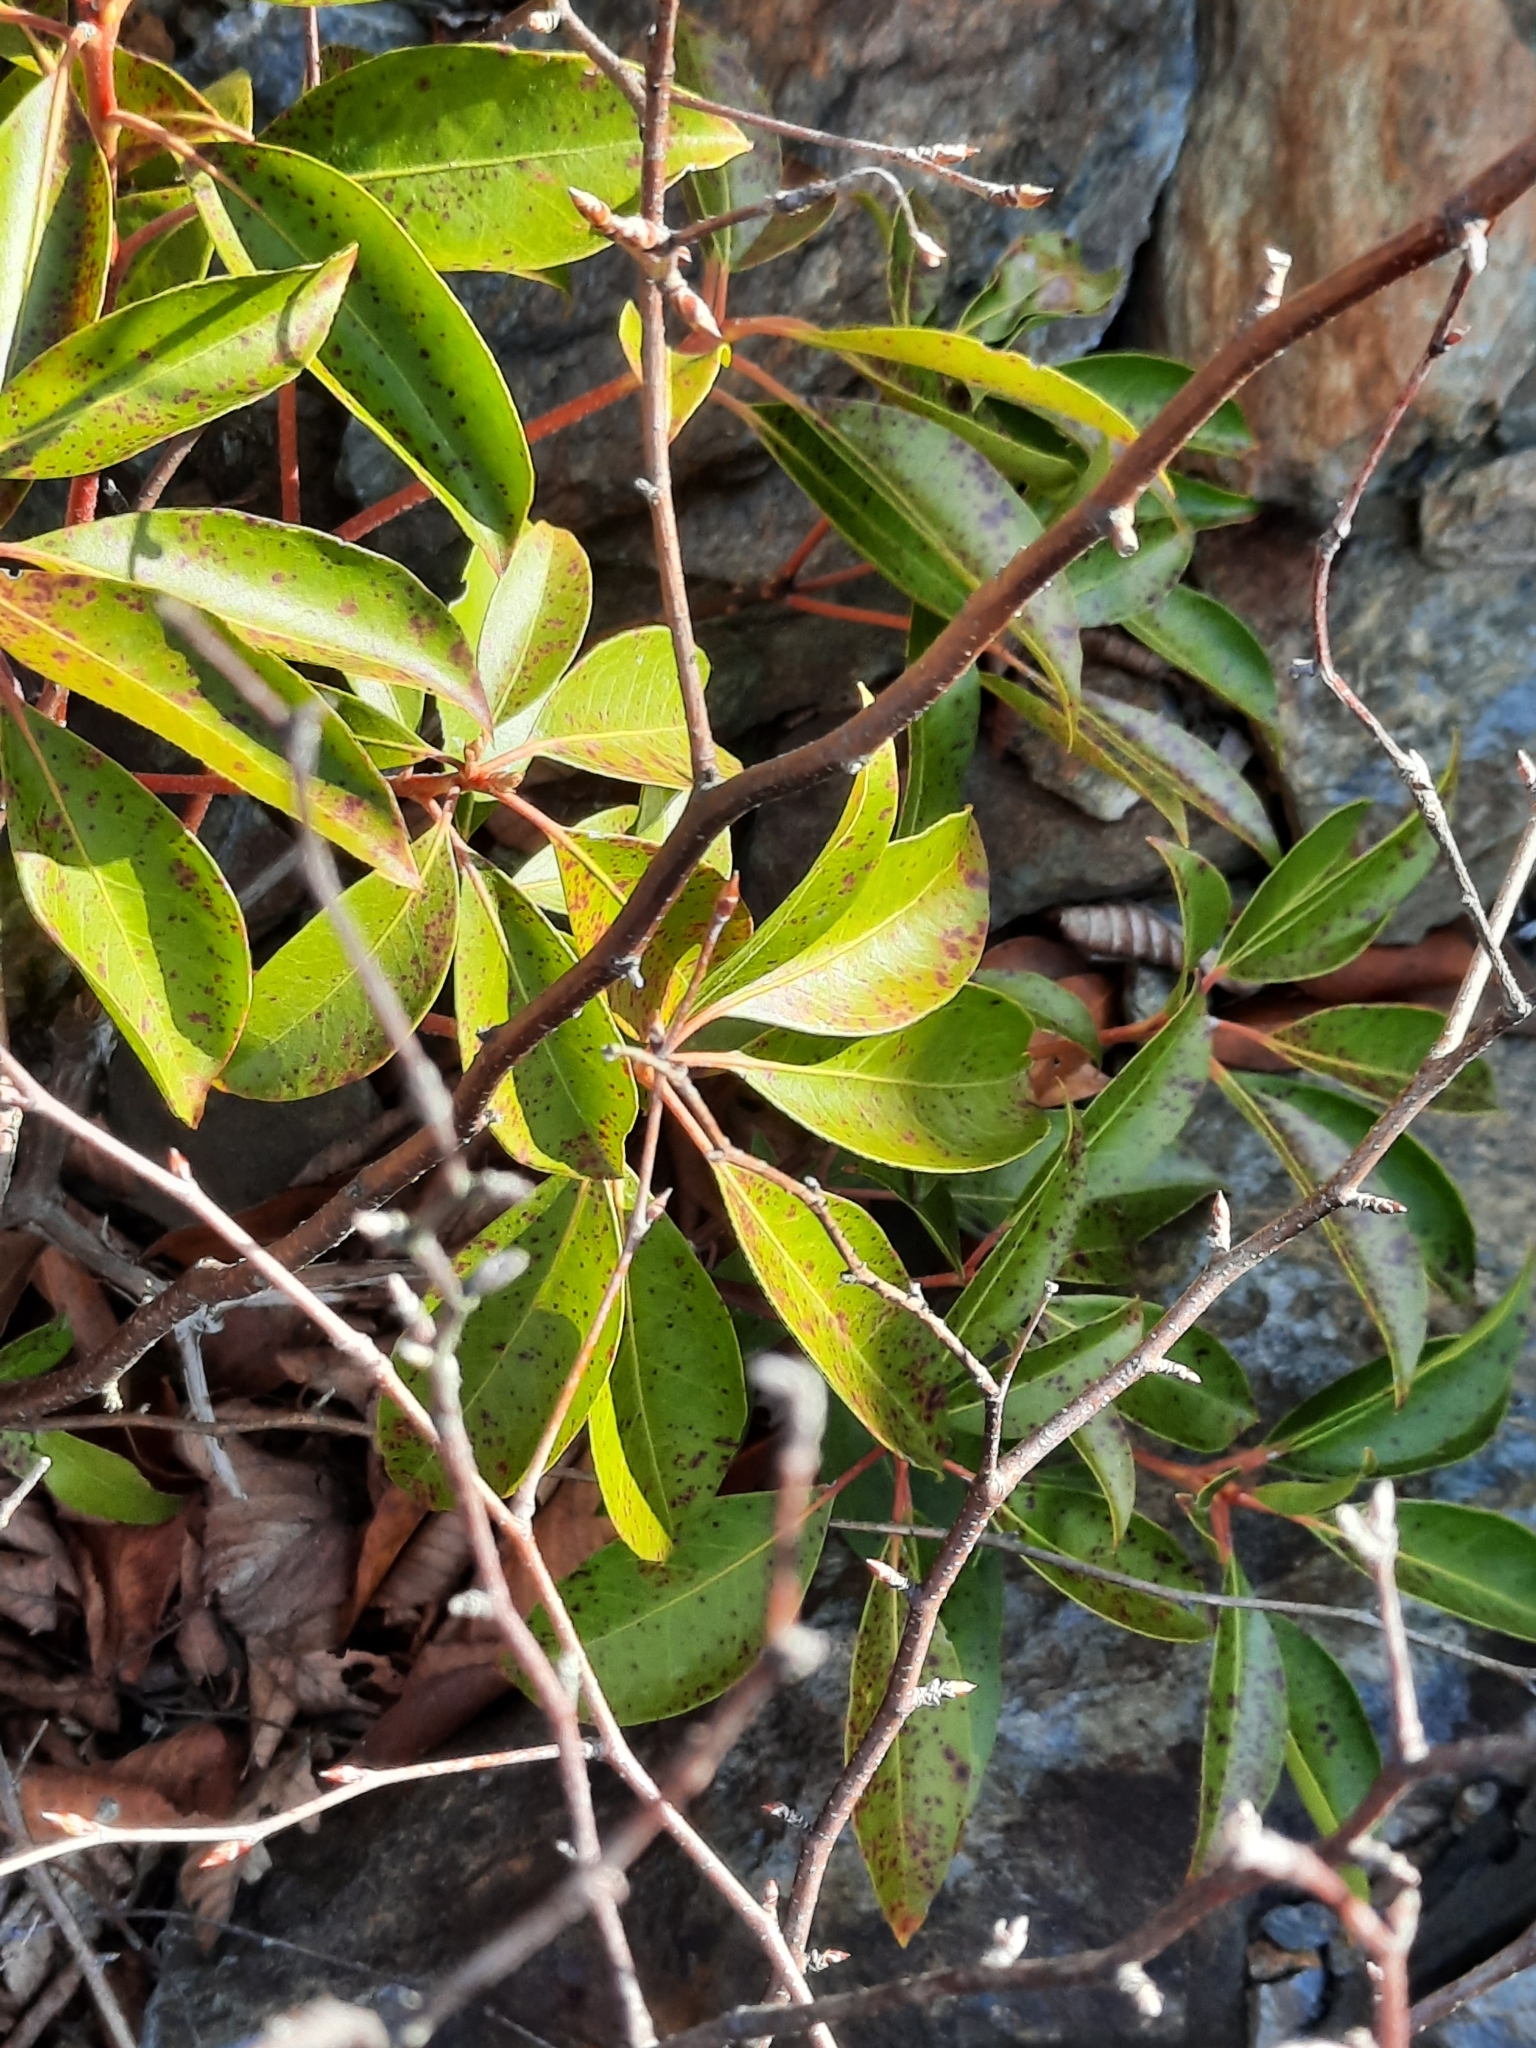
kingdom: Plantae
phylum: Tracheophyta
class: Magnoliopsida
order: Ericales
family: Ericaceae
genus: Kalmia
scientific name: Kalmia latifolia
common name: Mountain-laurel
